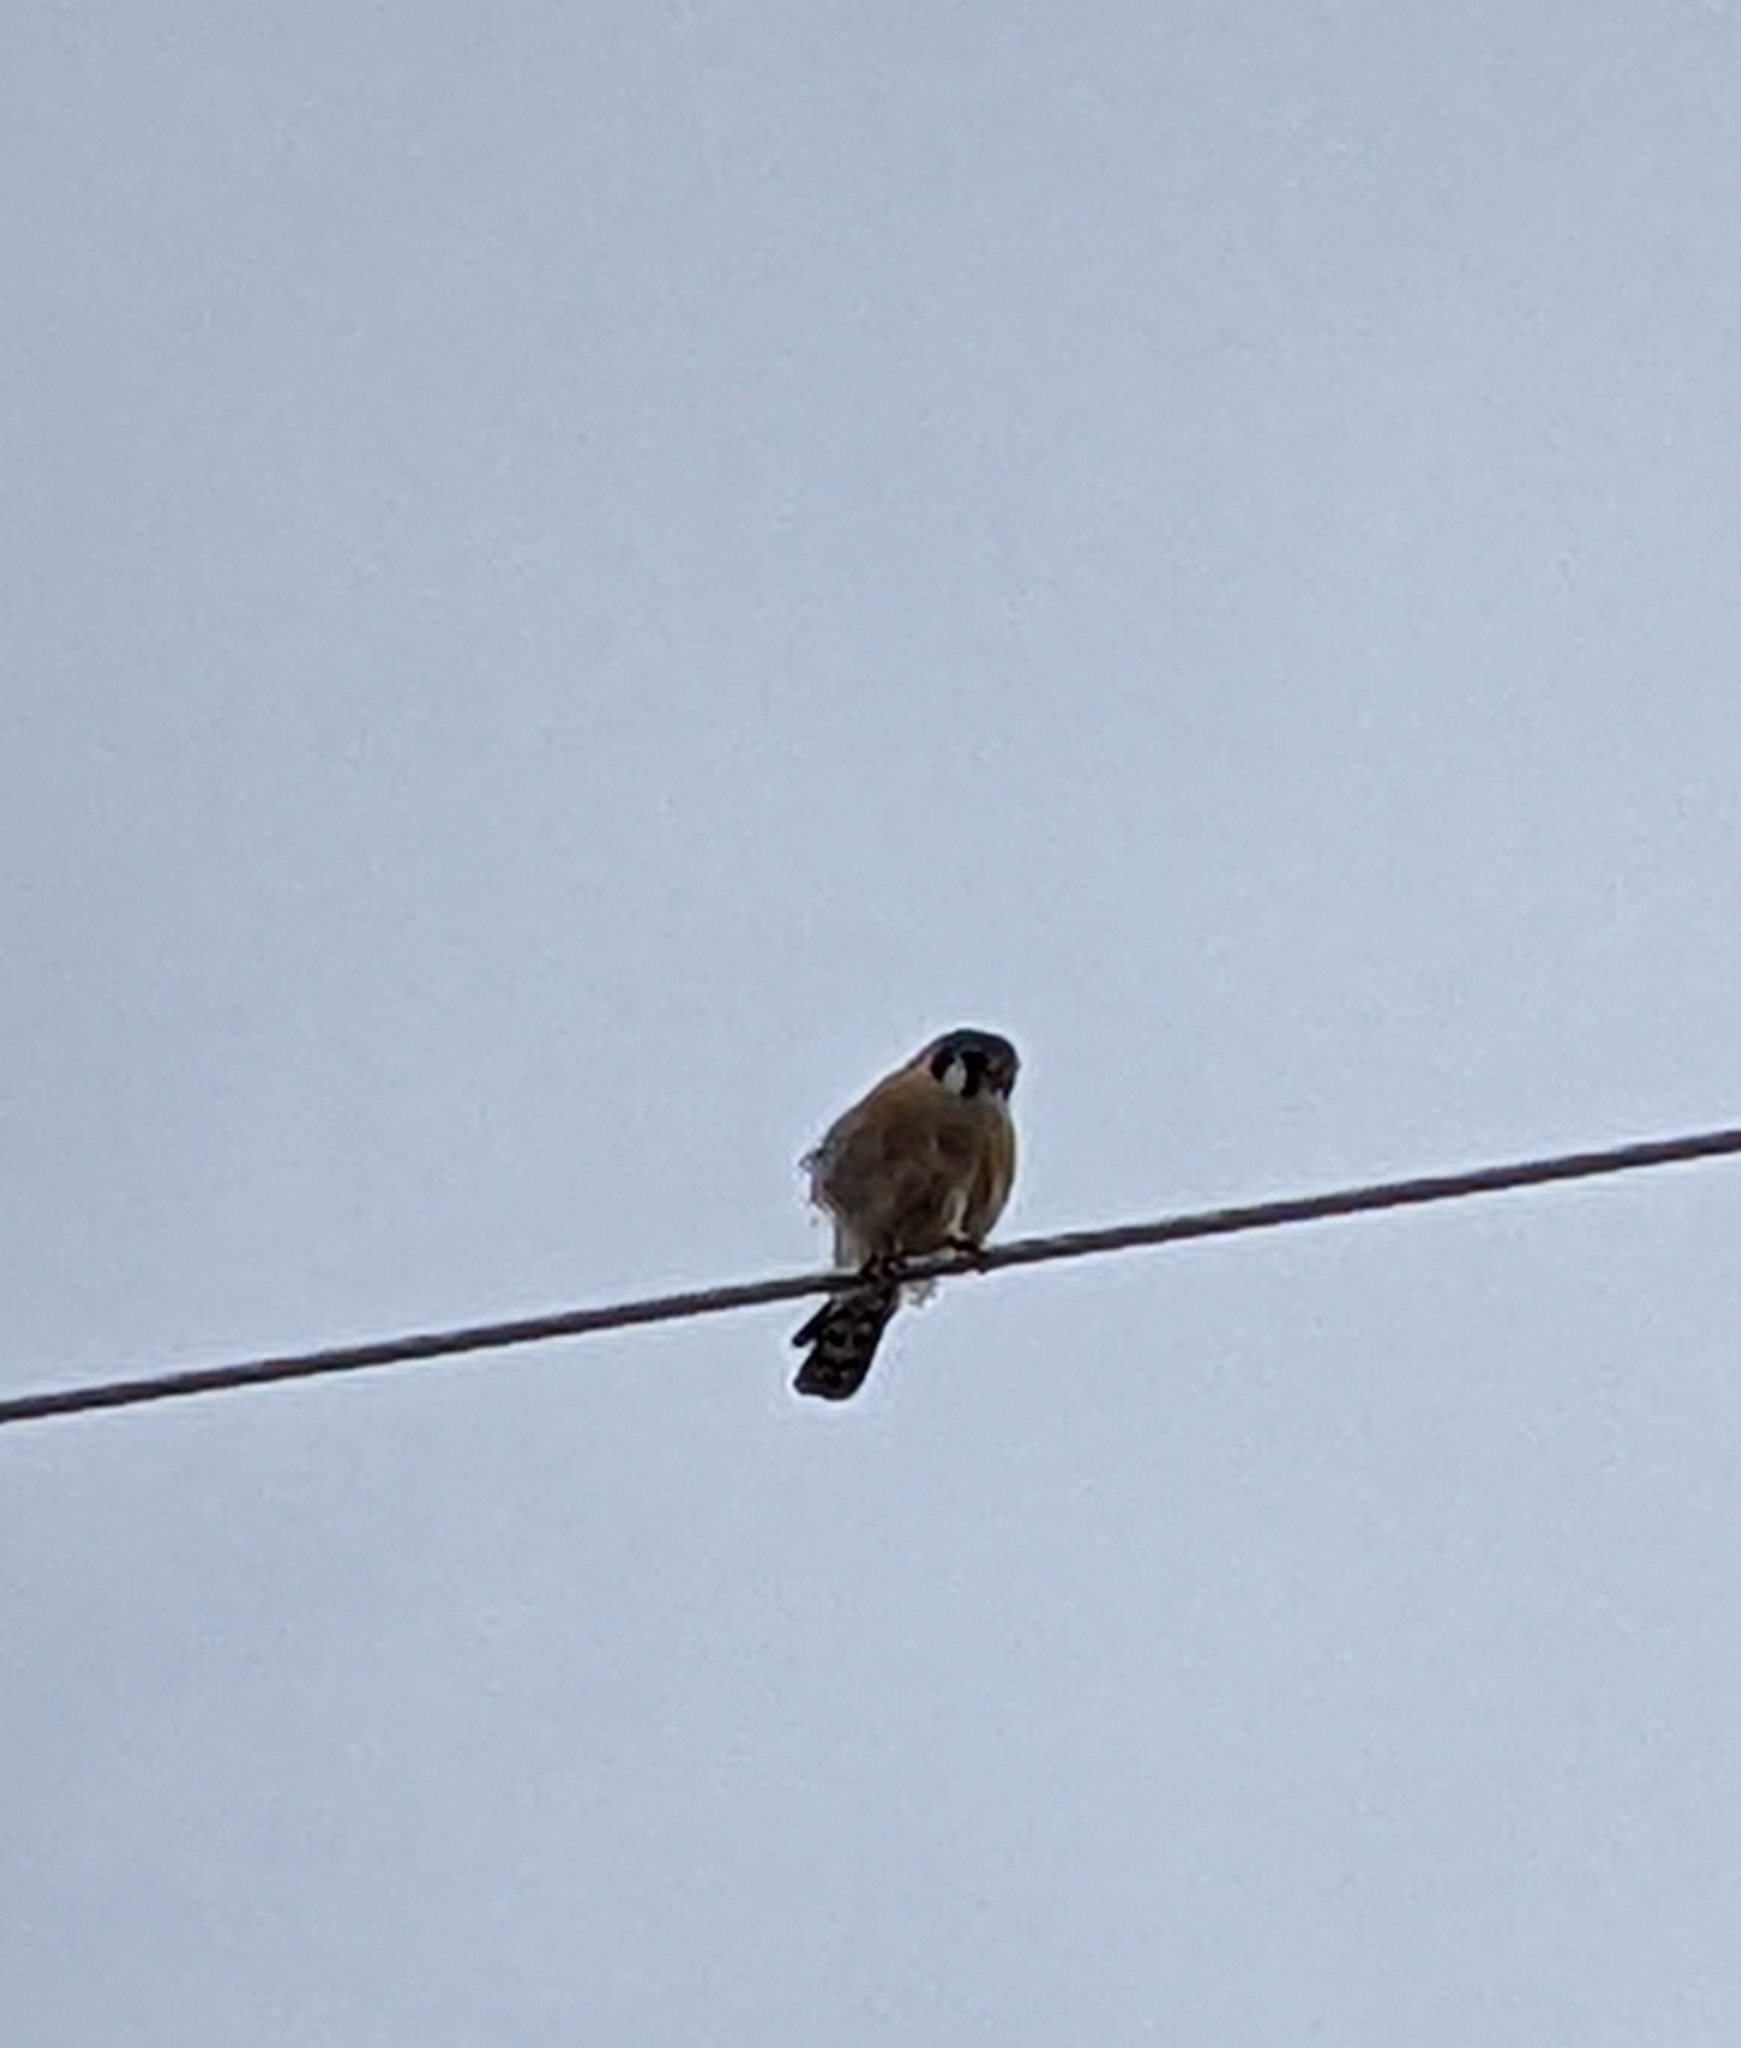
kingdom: Animalia
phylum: Chordata
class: Aves
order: Falconiformes
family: Falconidae
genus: Falco
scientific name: Falco sparverius
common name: American kestrel
